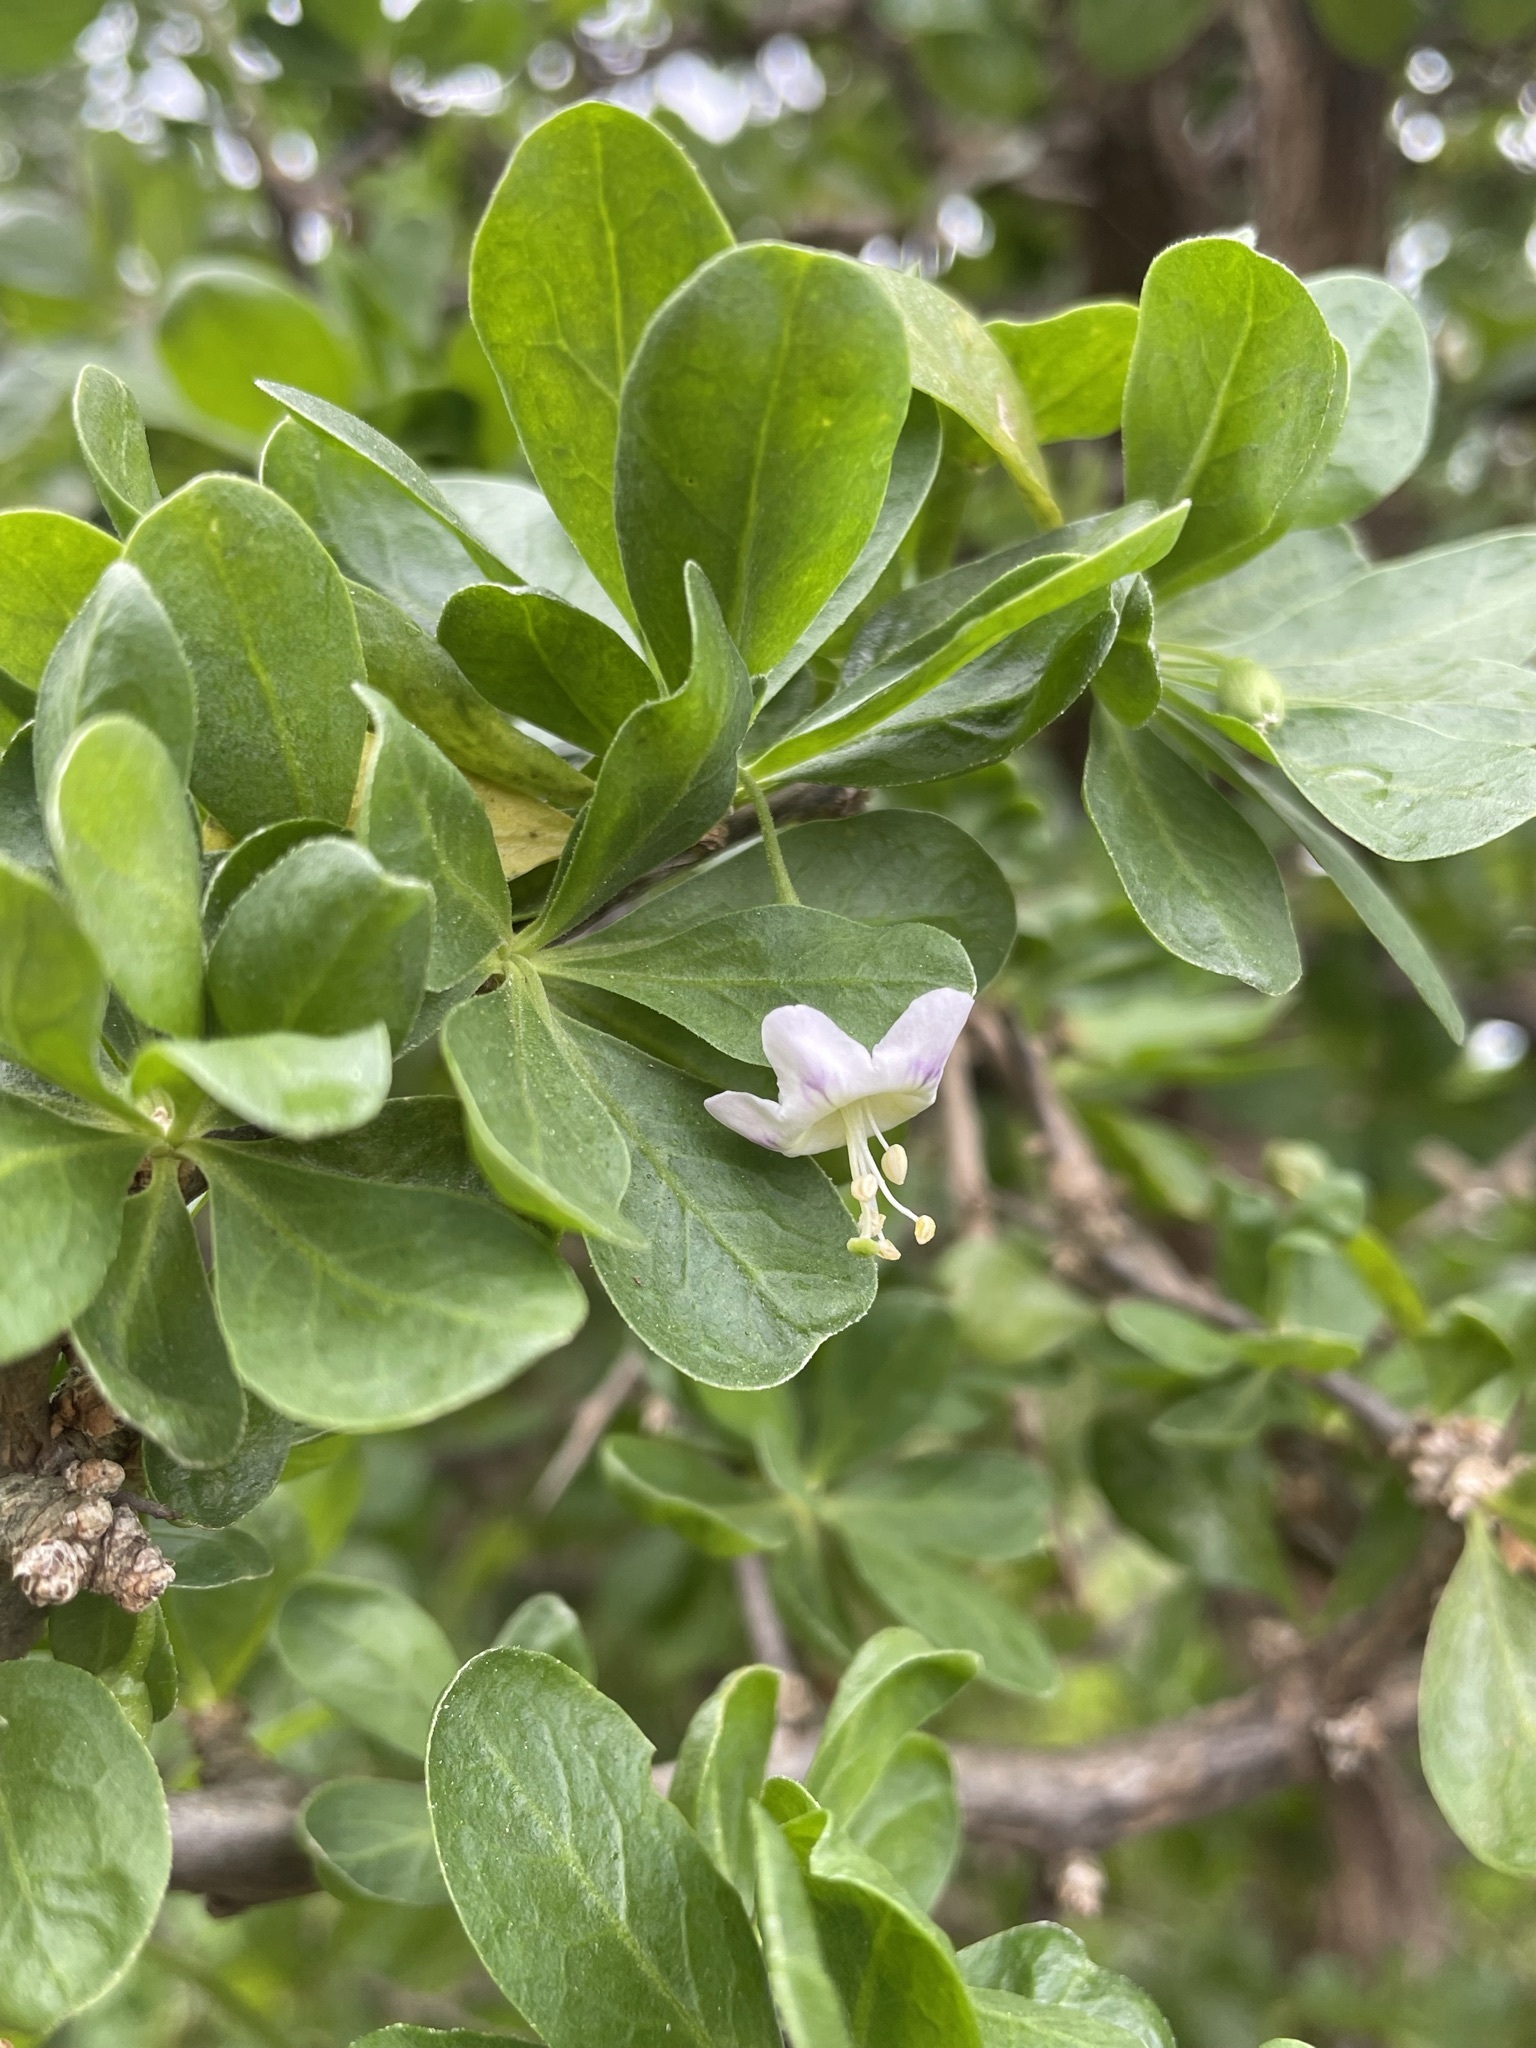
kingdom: Plantae
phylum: Tracheophyta
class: Magnoliopsida
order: Solanales
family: Solanaceae
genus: Lycium
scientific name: Lycium ferocissimum
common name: African boxthorn
